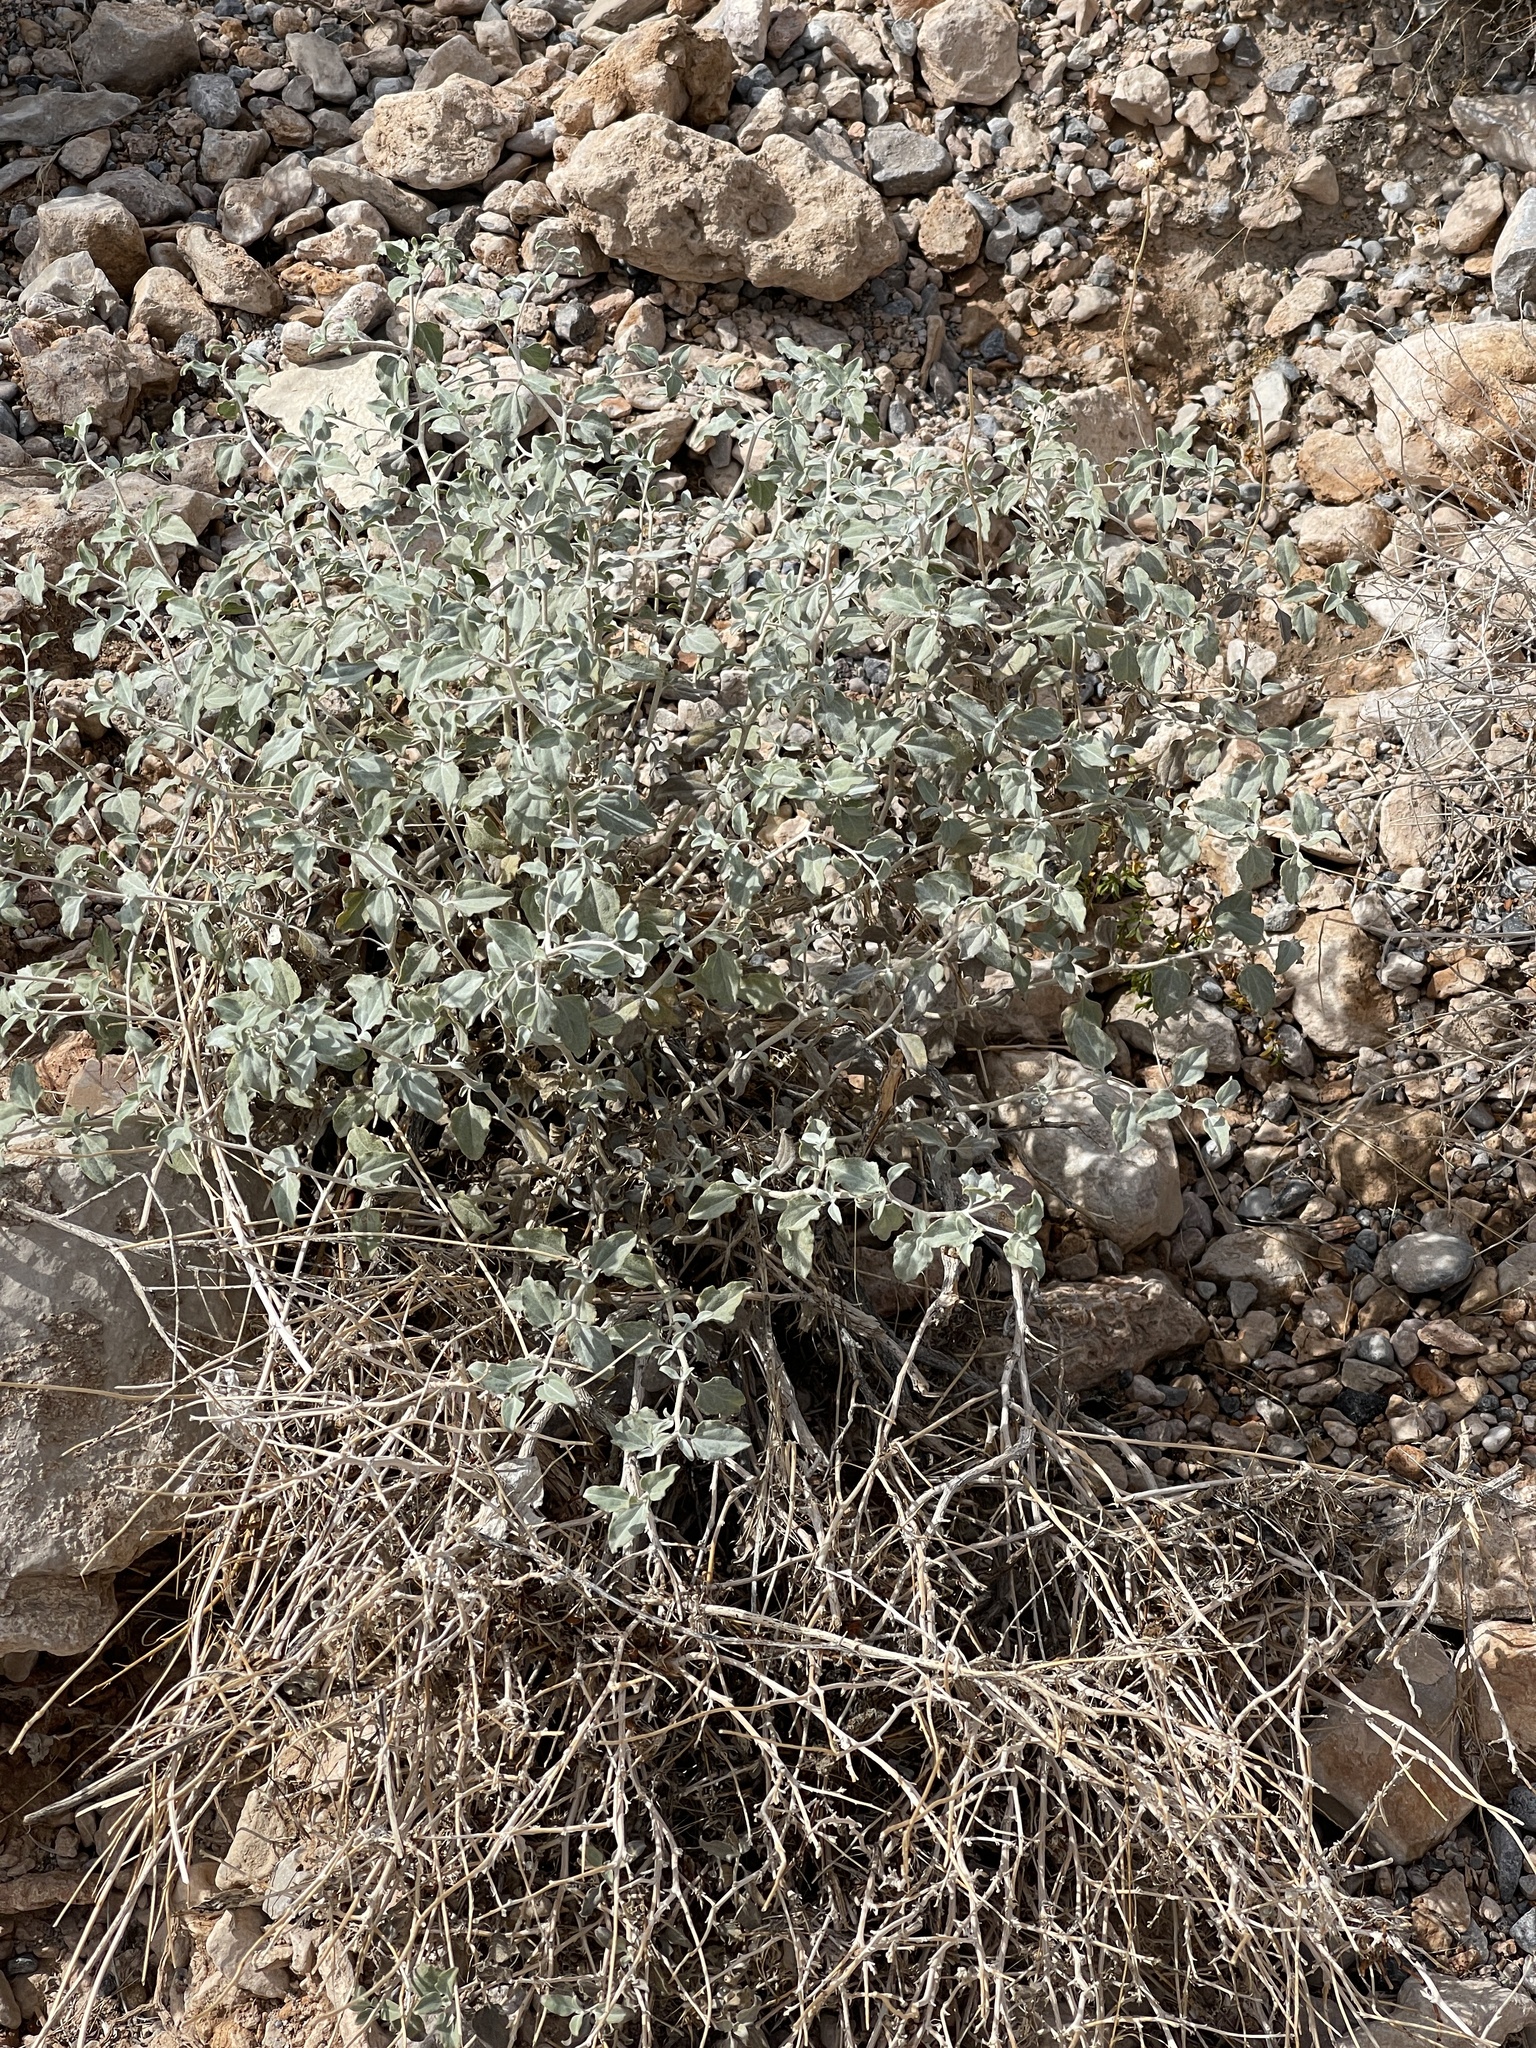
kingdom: Plantae
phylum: Tracheophyta
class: Magnoliopsida
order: Asterales
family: Asteraceae
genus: Encelia
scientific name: Encelia farinosa
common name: Brittlebush
